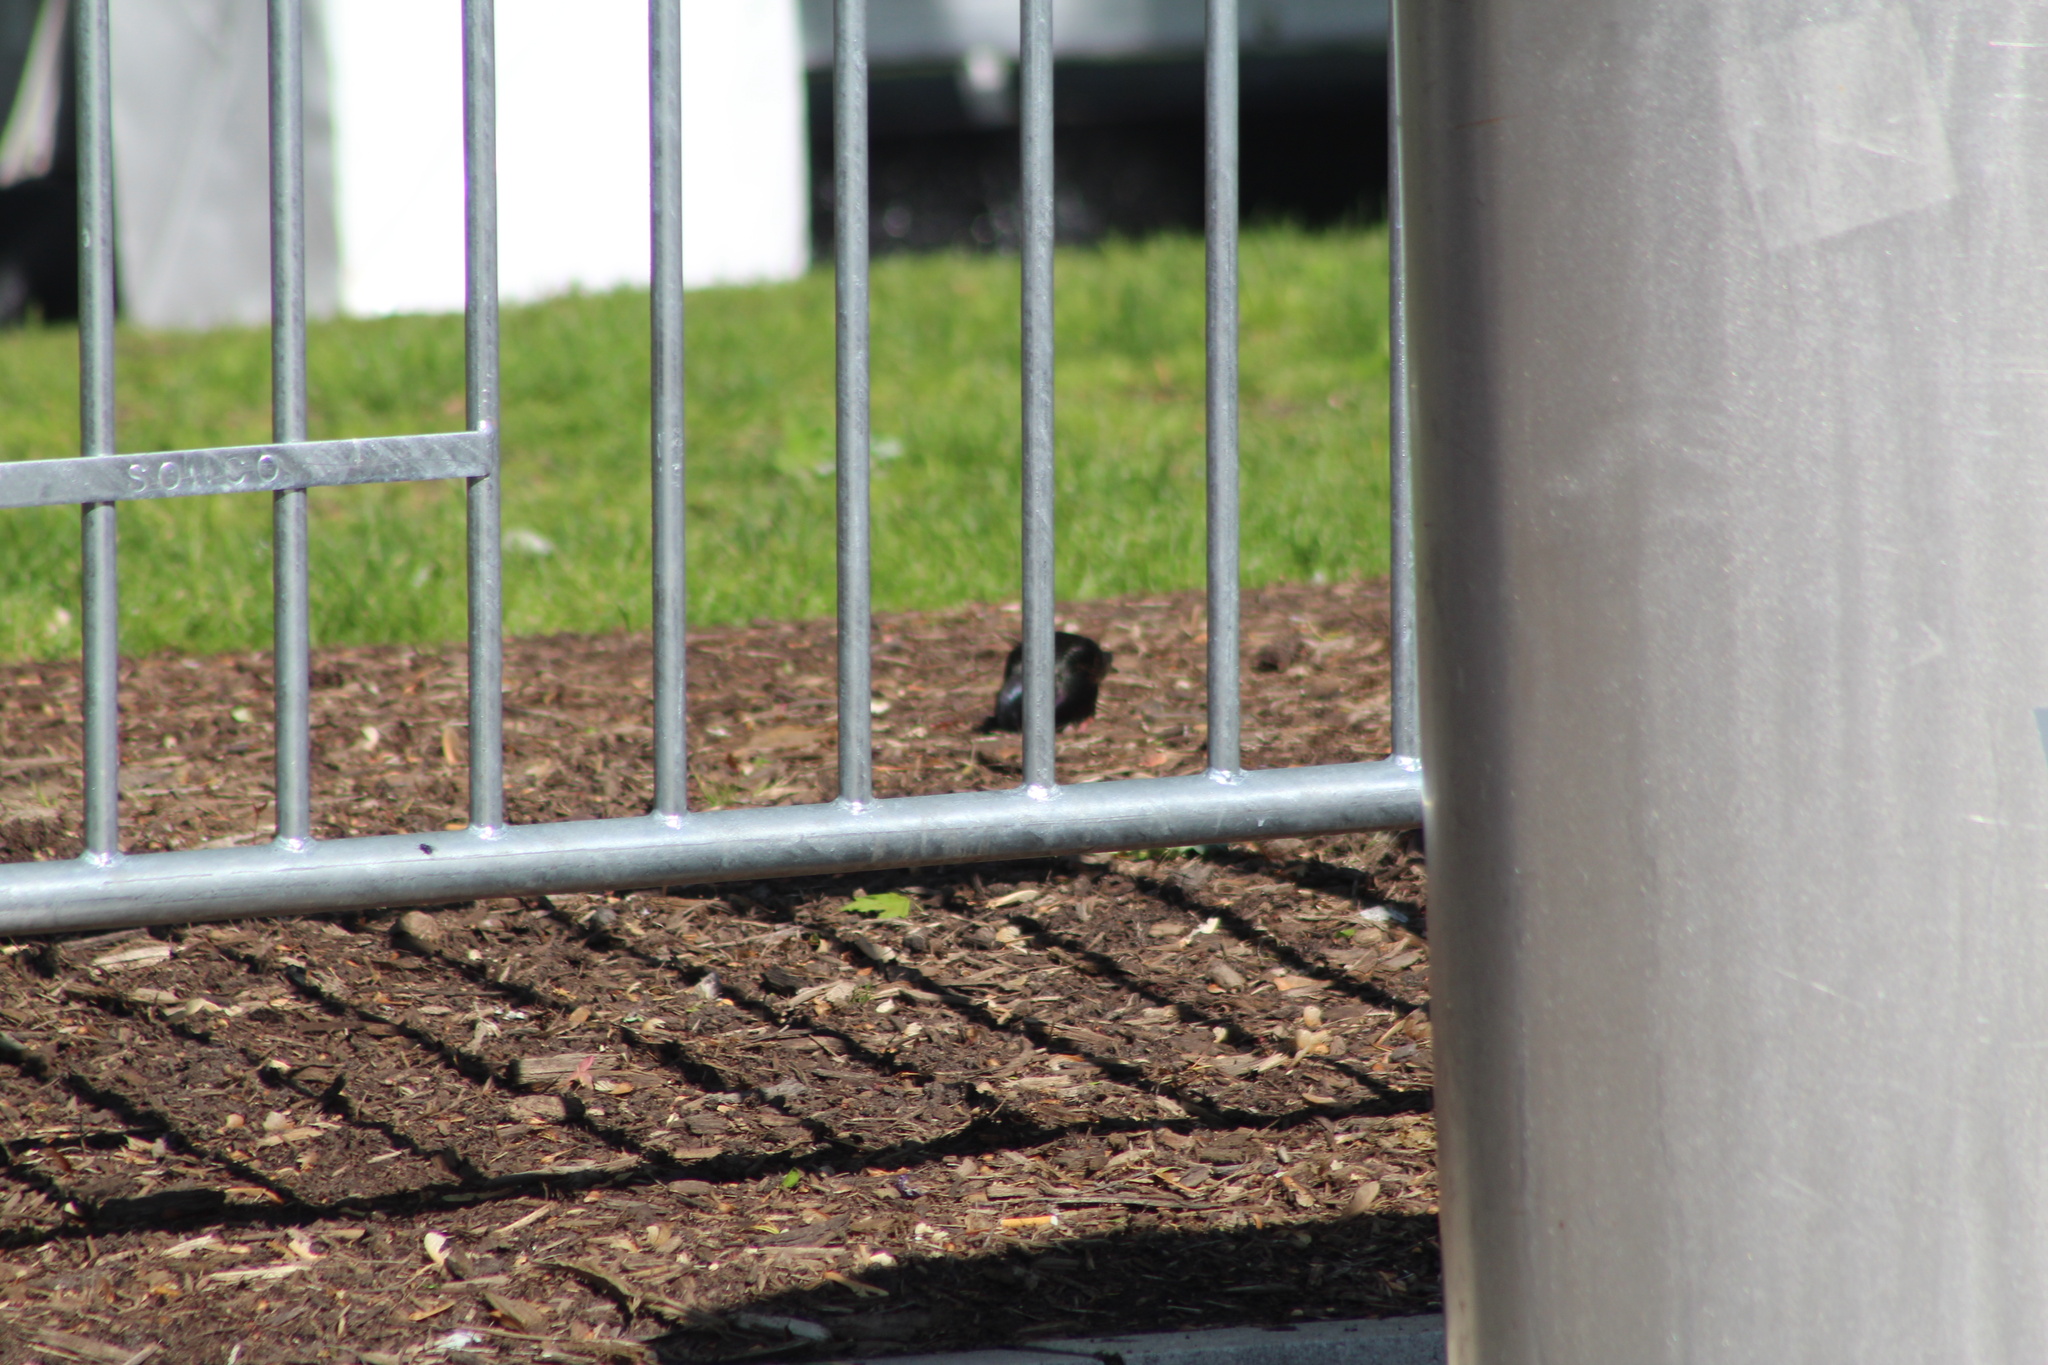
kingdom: Animalia
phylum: Chordata
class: Aves
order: Passeriformes
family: Sturnidae
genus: Sturnus
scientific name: Sturnus vulgaris
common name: Common starling
